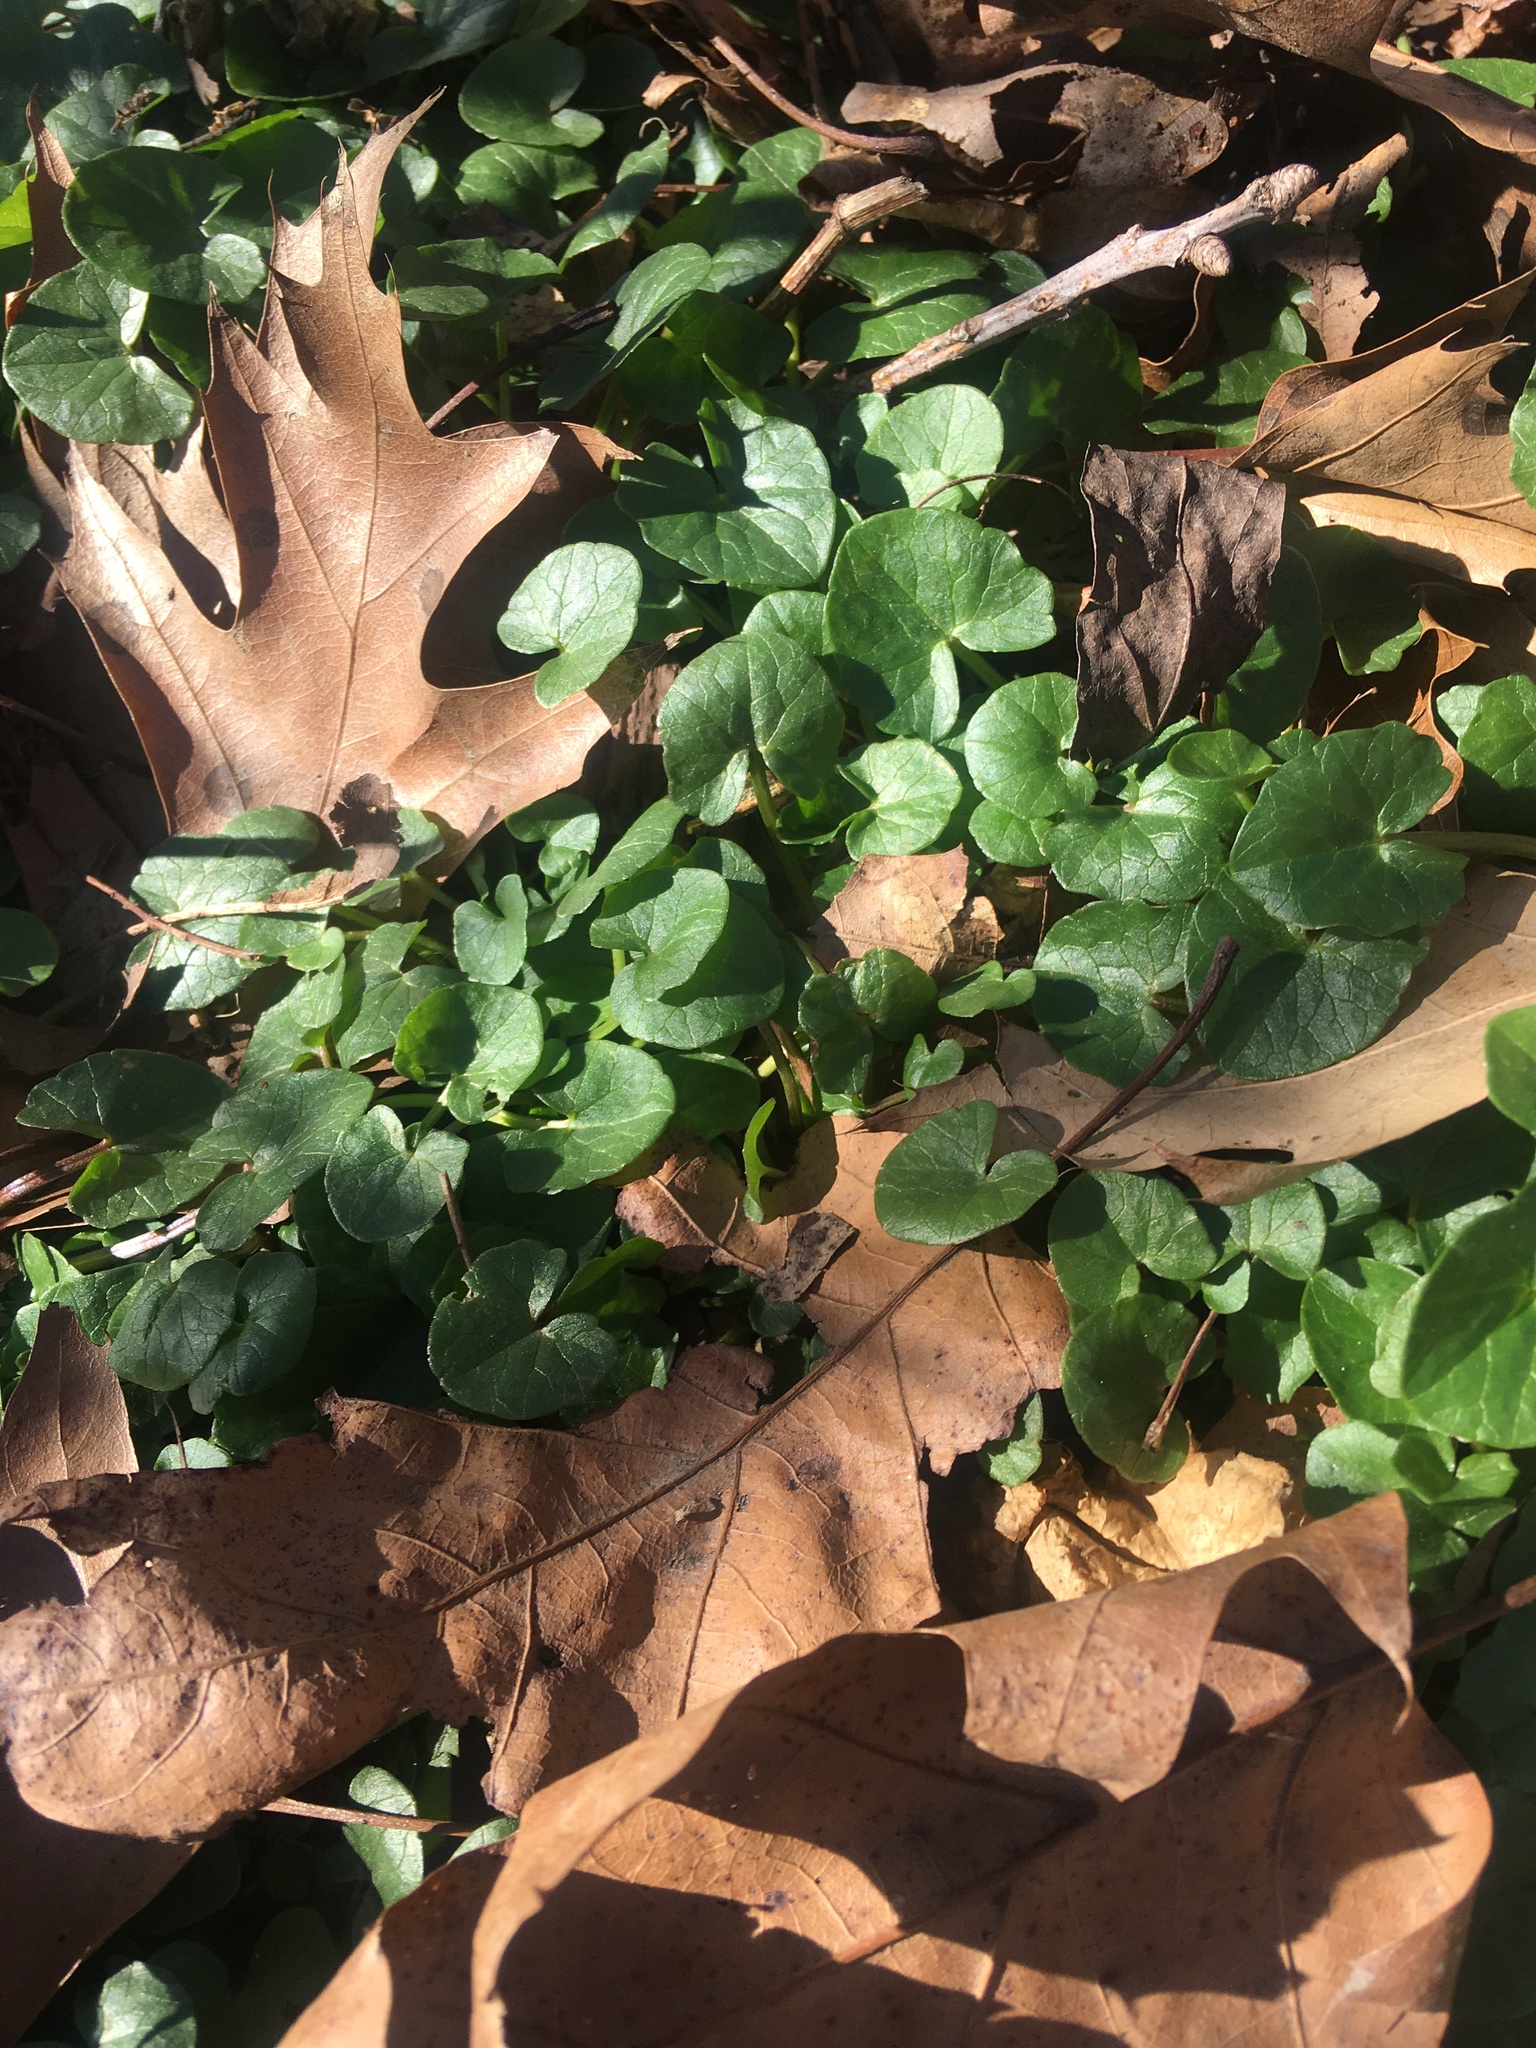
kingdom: Plantae
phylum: Tracheophyta
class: Magnoliopsida
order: Ranunculales
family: Ranunculaceae
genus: Ficaria
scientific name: Ficaria verna
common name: Lesser celandine
